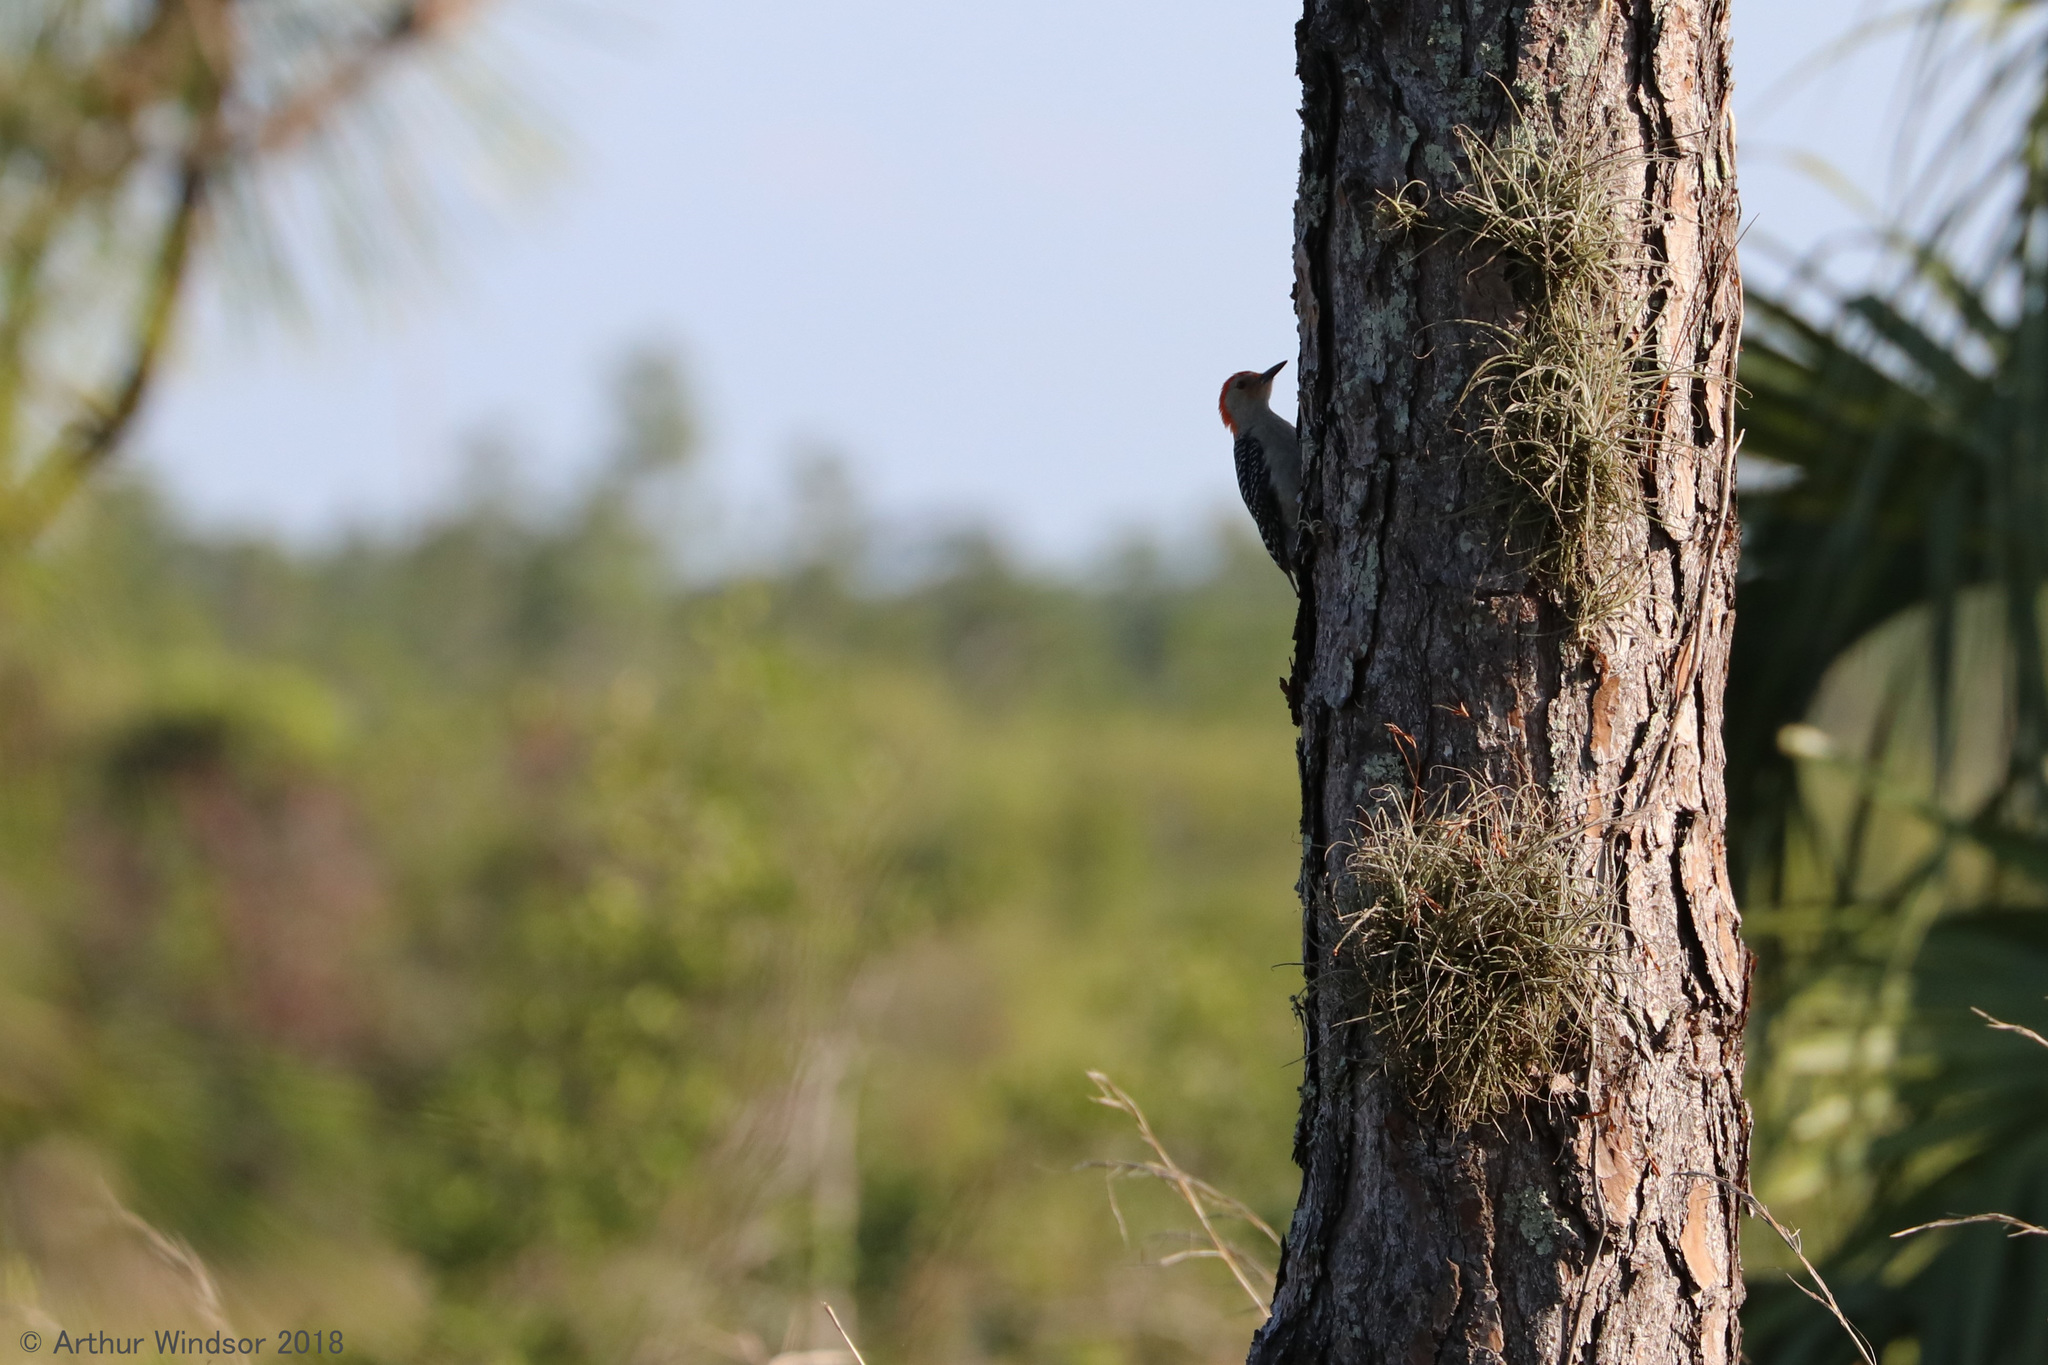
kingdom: Animalia
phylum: Chordata
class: Aves
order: Piciformes
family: Picidae
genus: Melanerpes
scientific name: Melanerpes carolinus
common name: Red-bellied woodpecker
